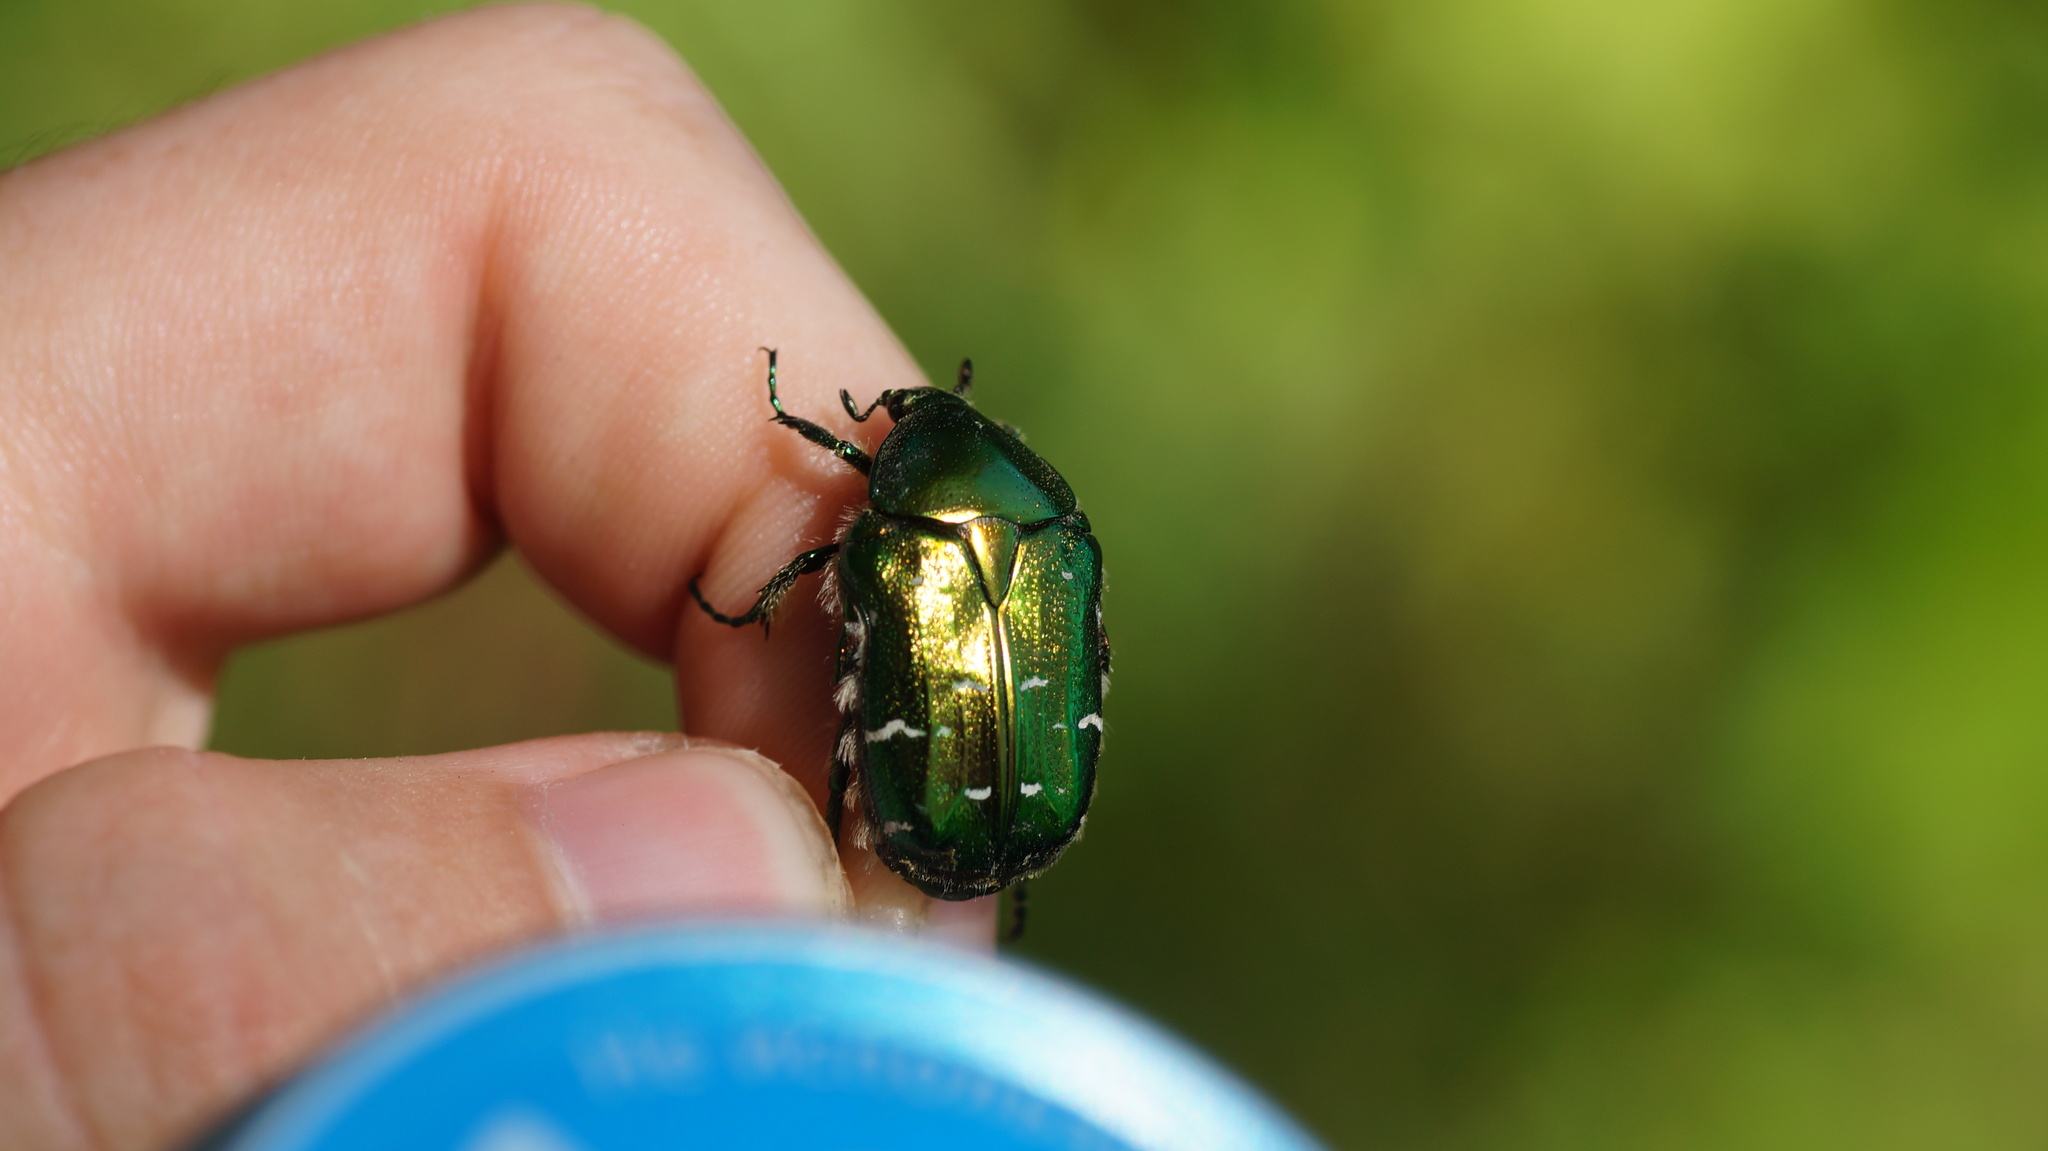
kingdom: Animalia
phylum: Arthropoda
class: Insecta
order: Coleoptera
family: Scarabaeidae
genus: Cetonia
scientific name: Cetonia aurata
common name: Rose chafer
